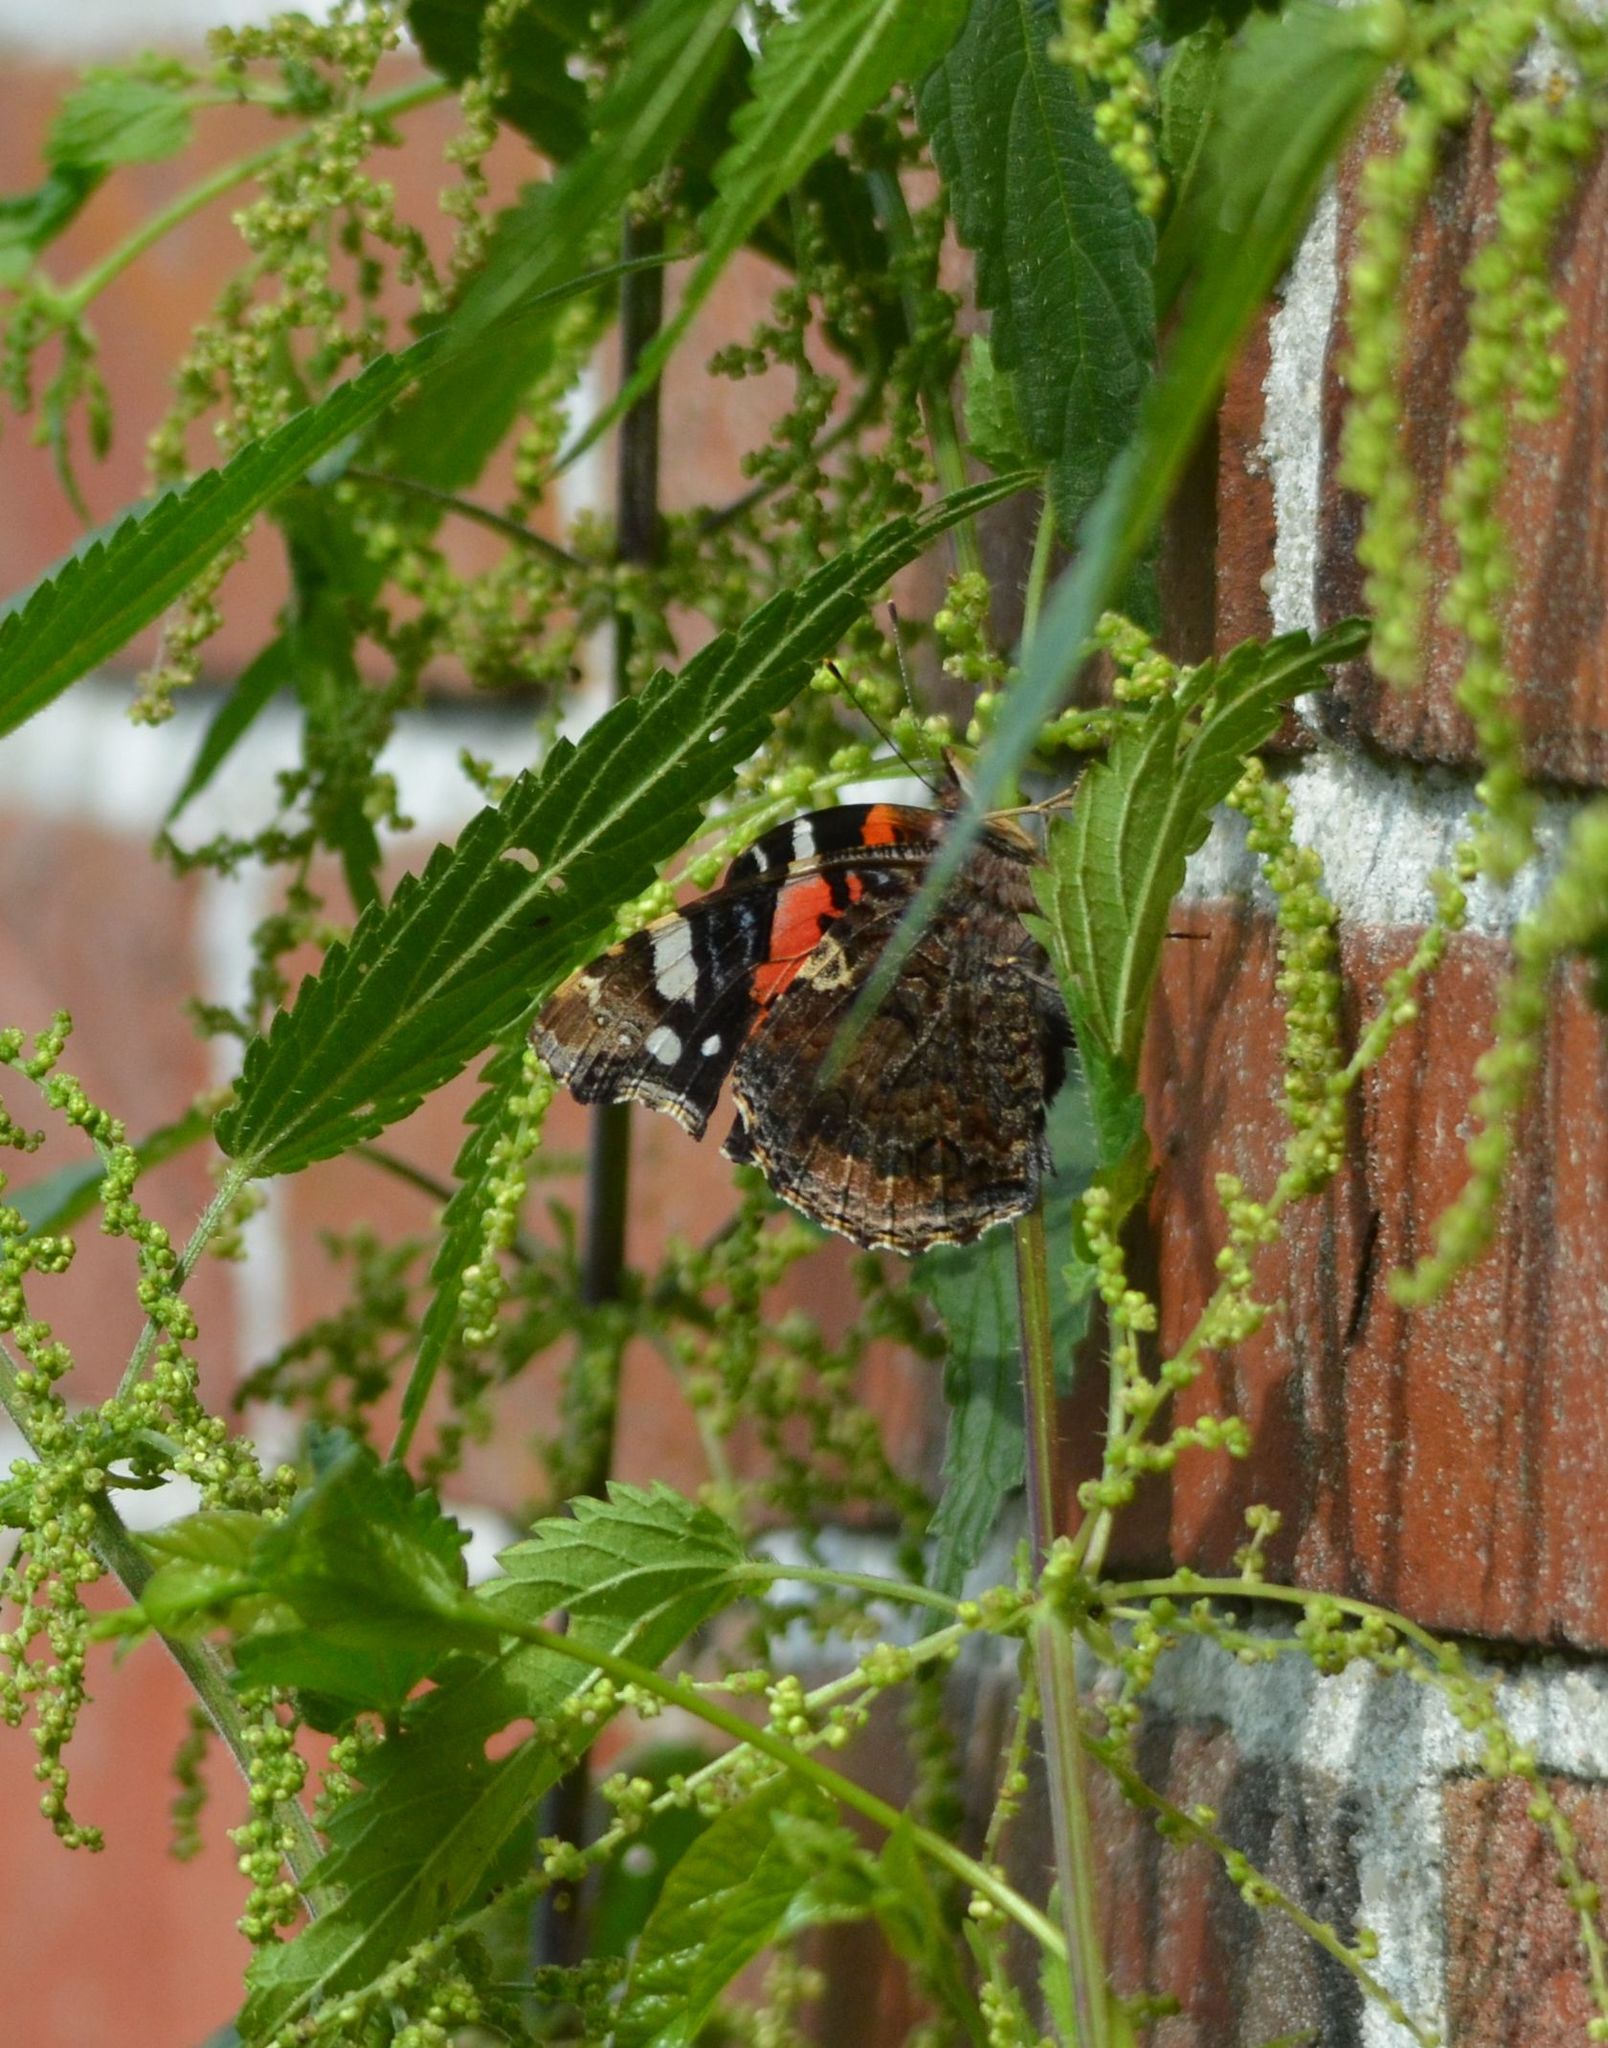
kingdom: Animalia
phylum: Arthropoda
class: Insecta
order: Lepidoptera
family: Nymphalidae
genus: Vanessa
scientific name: Vanessa atalanta
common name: Red admiral
